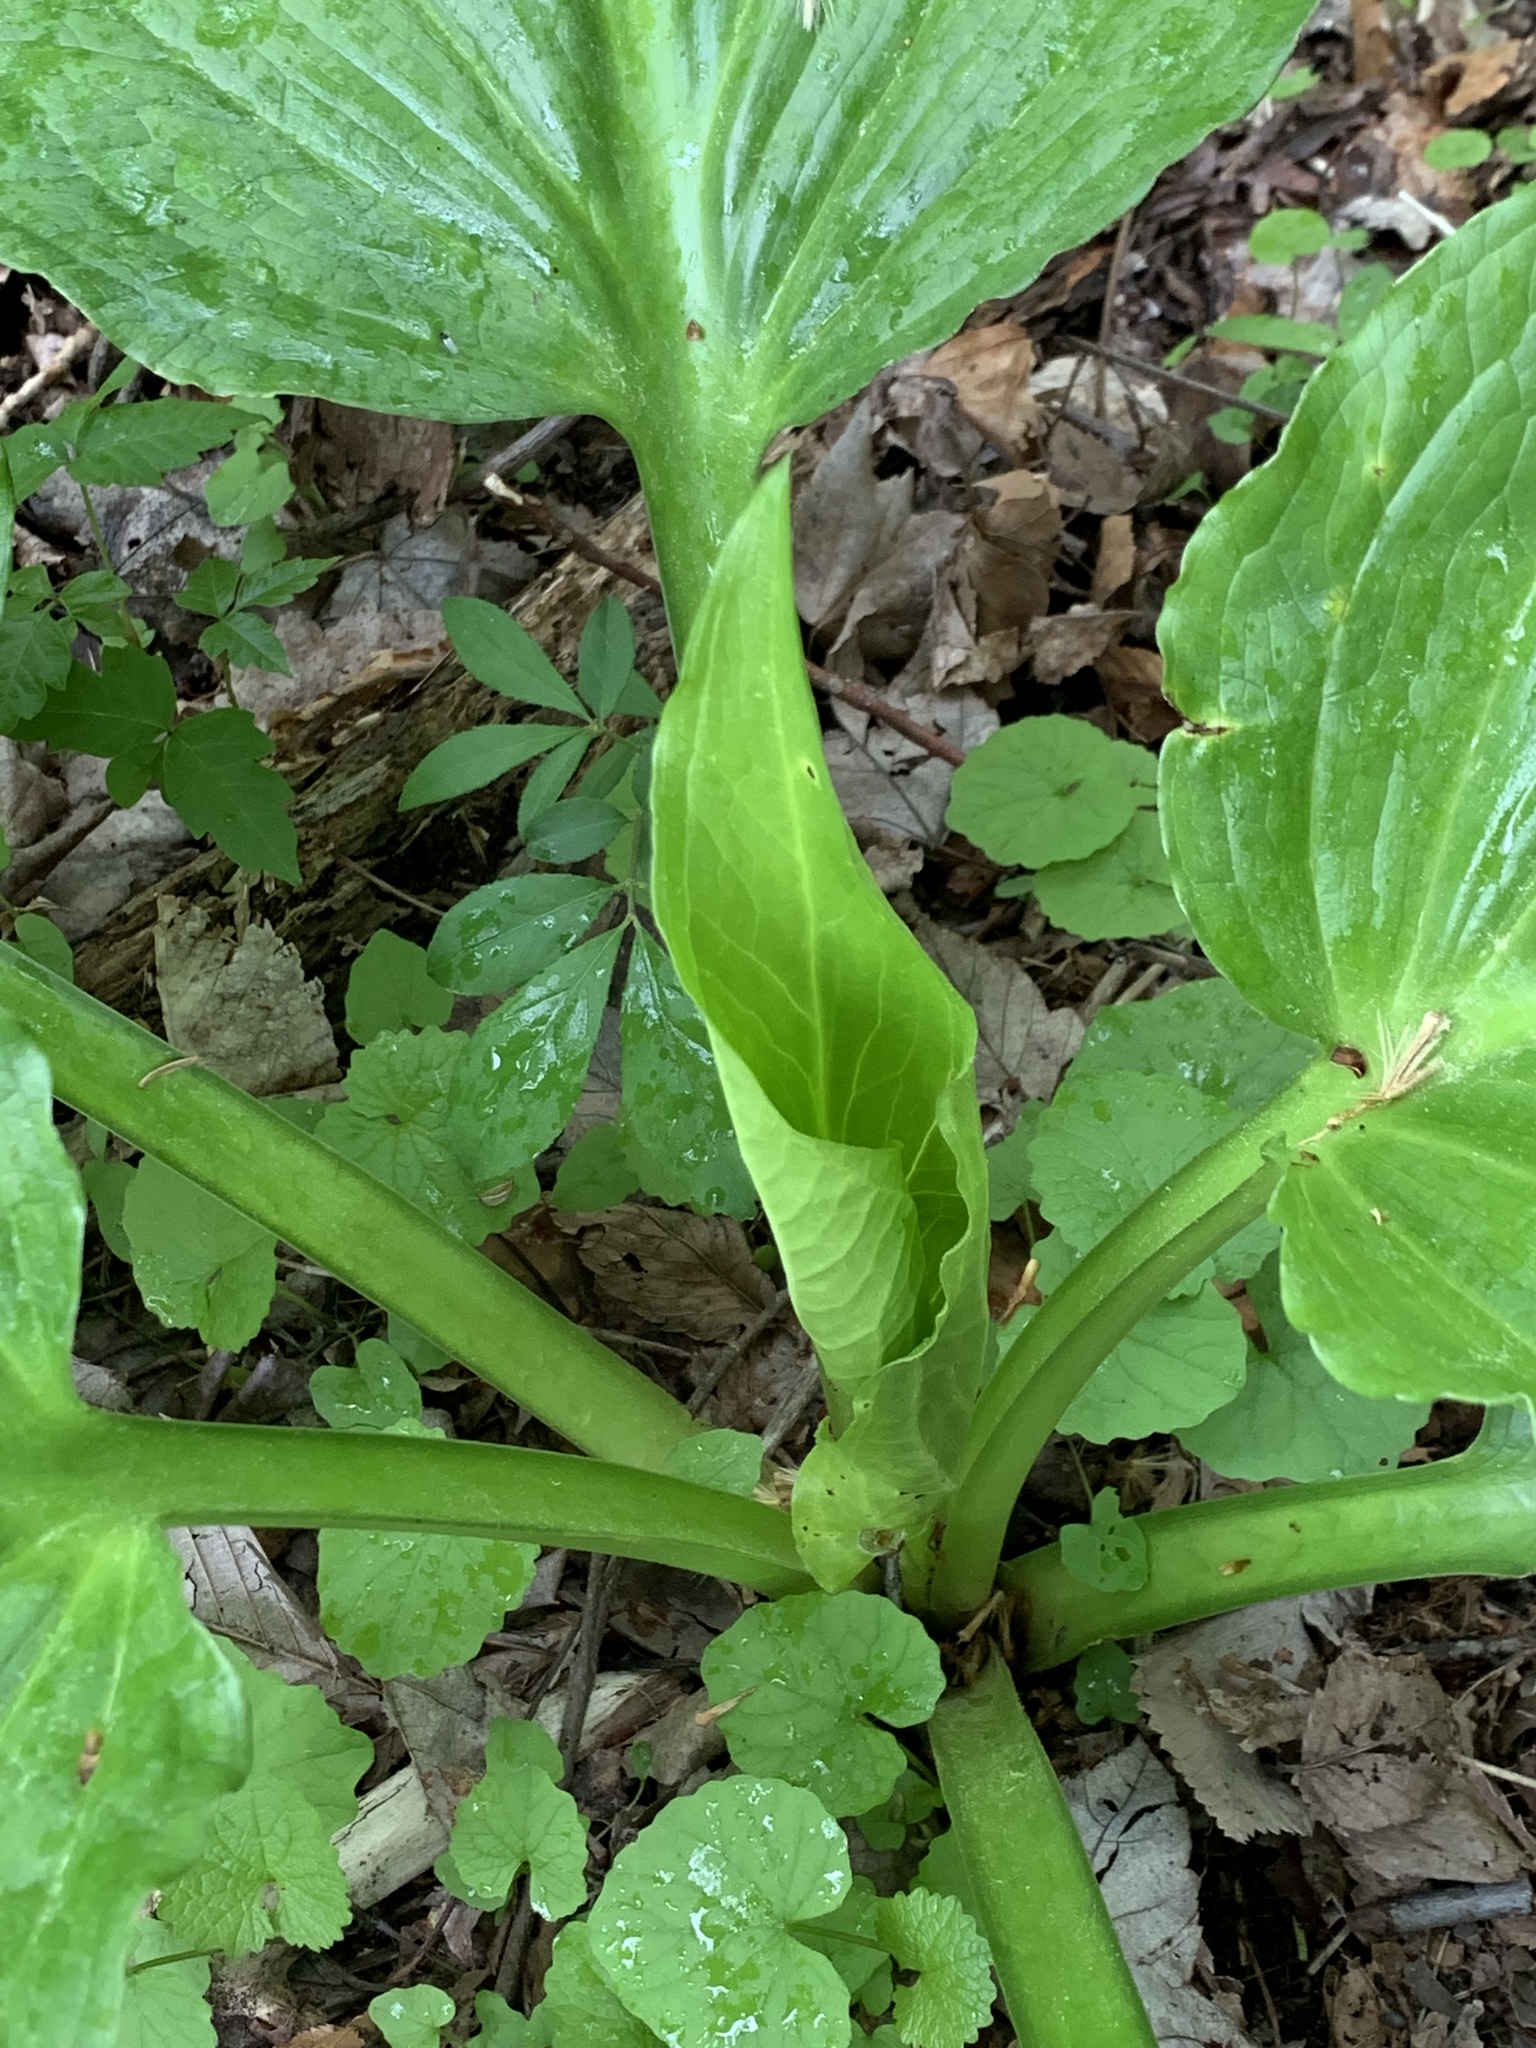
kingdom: Plantae
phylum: Tracheophyta
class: Liliopsida
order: Alismatales
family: Araceae
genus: Symplocarpus
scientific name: Symplocarpus foetidus
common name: Eastern skunk cabbage
